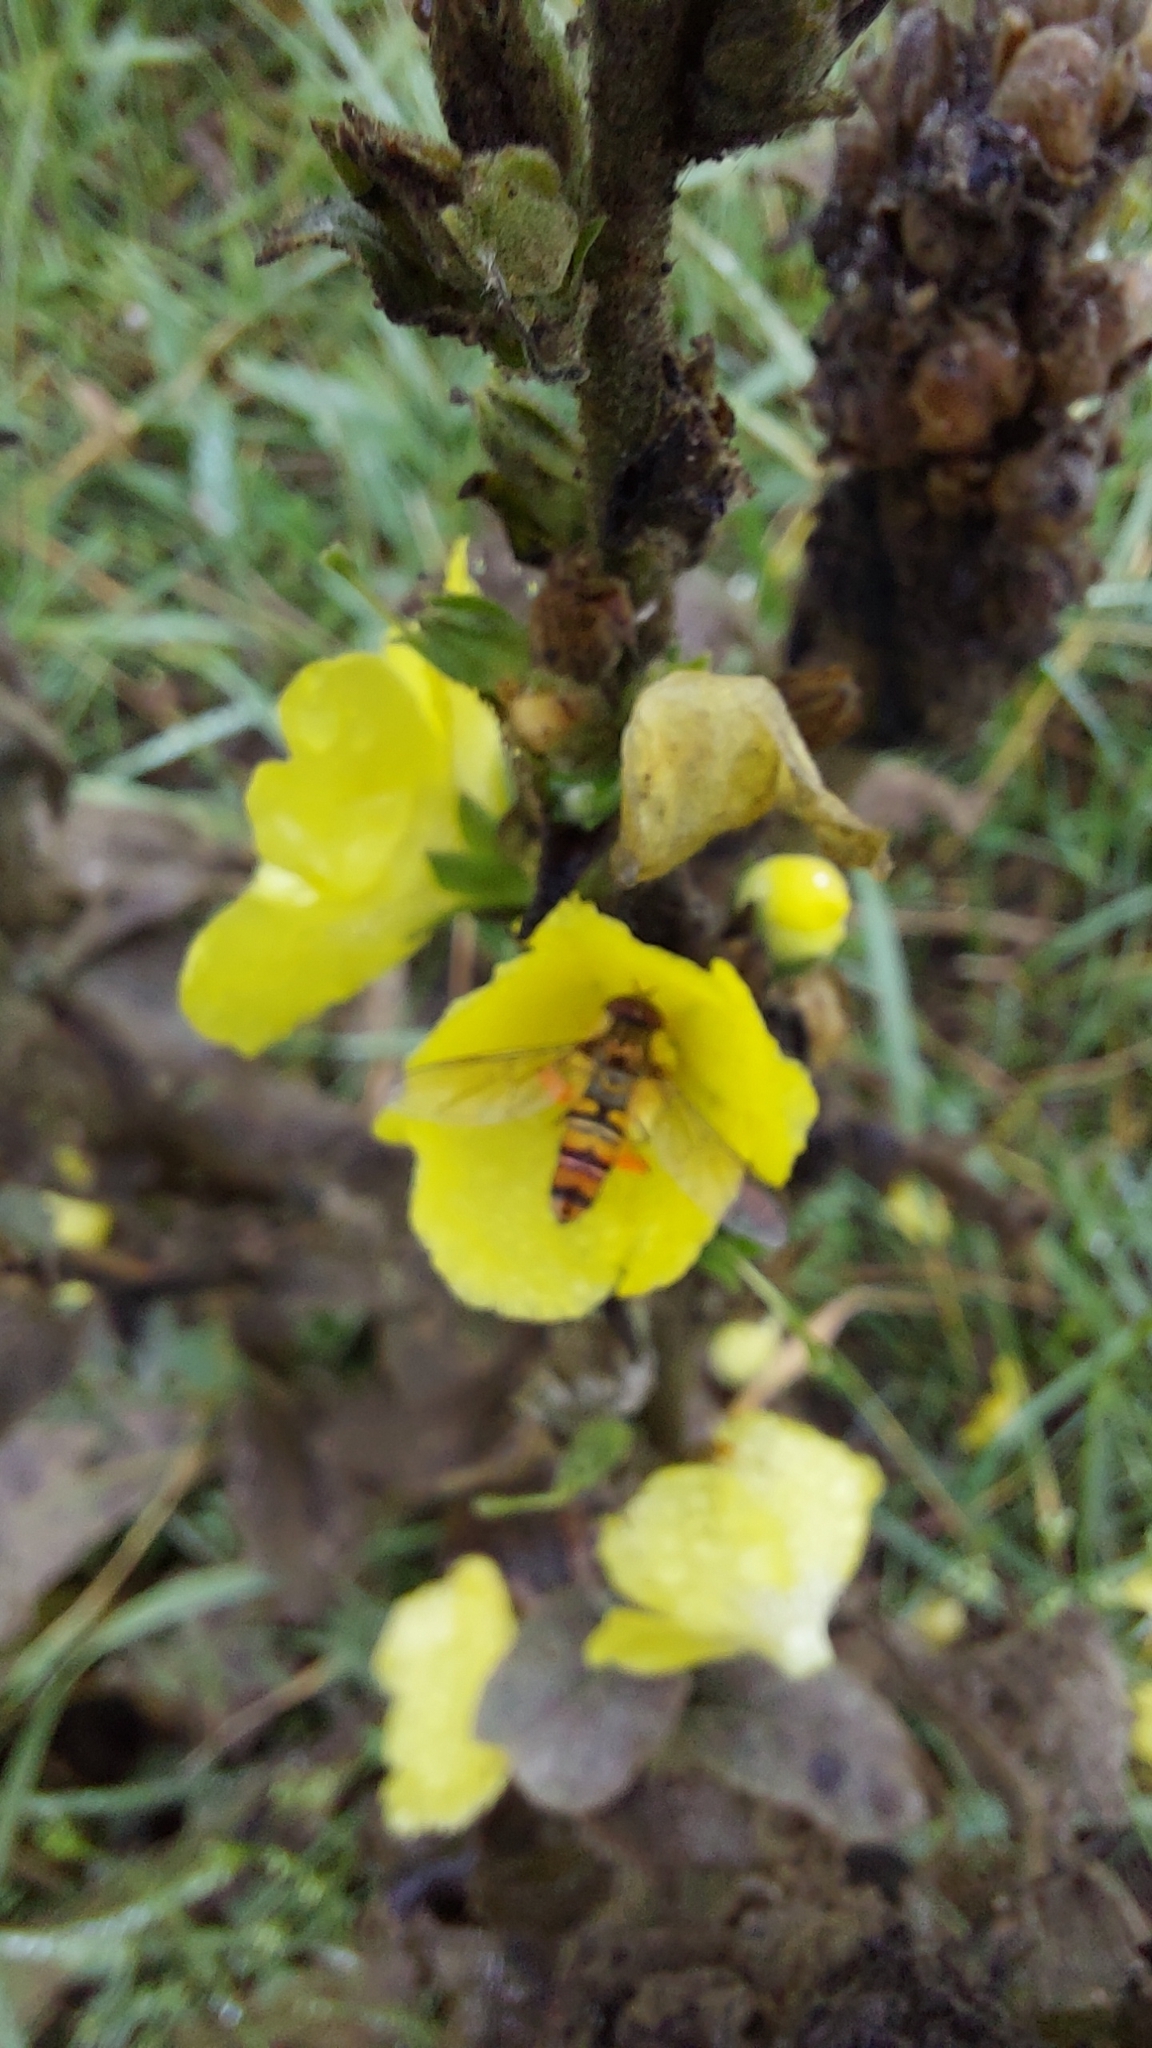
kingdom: Animalia
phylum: Arthropoda
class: Insecta
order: Diptera
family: Syrphidae
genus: Episyrphus
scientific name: Episyrphus balteatus
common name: Marmalade hoverfly
